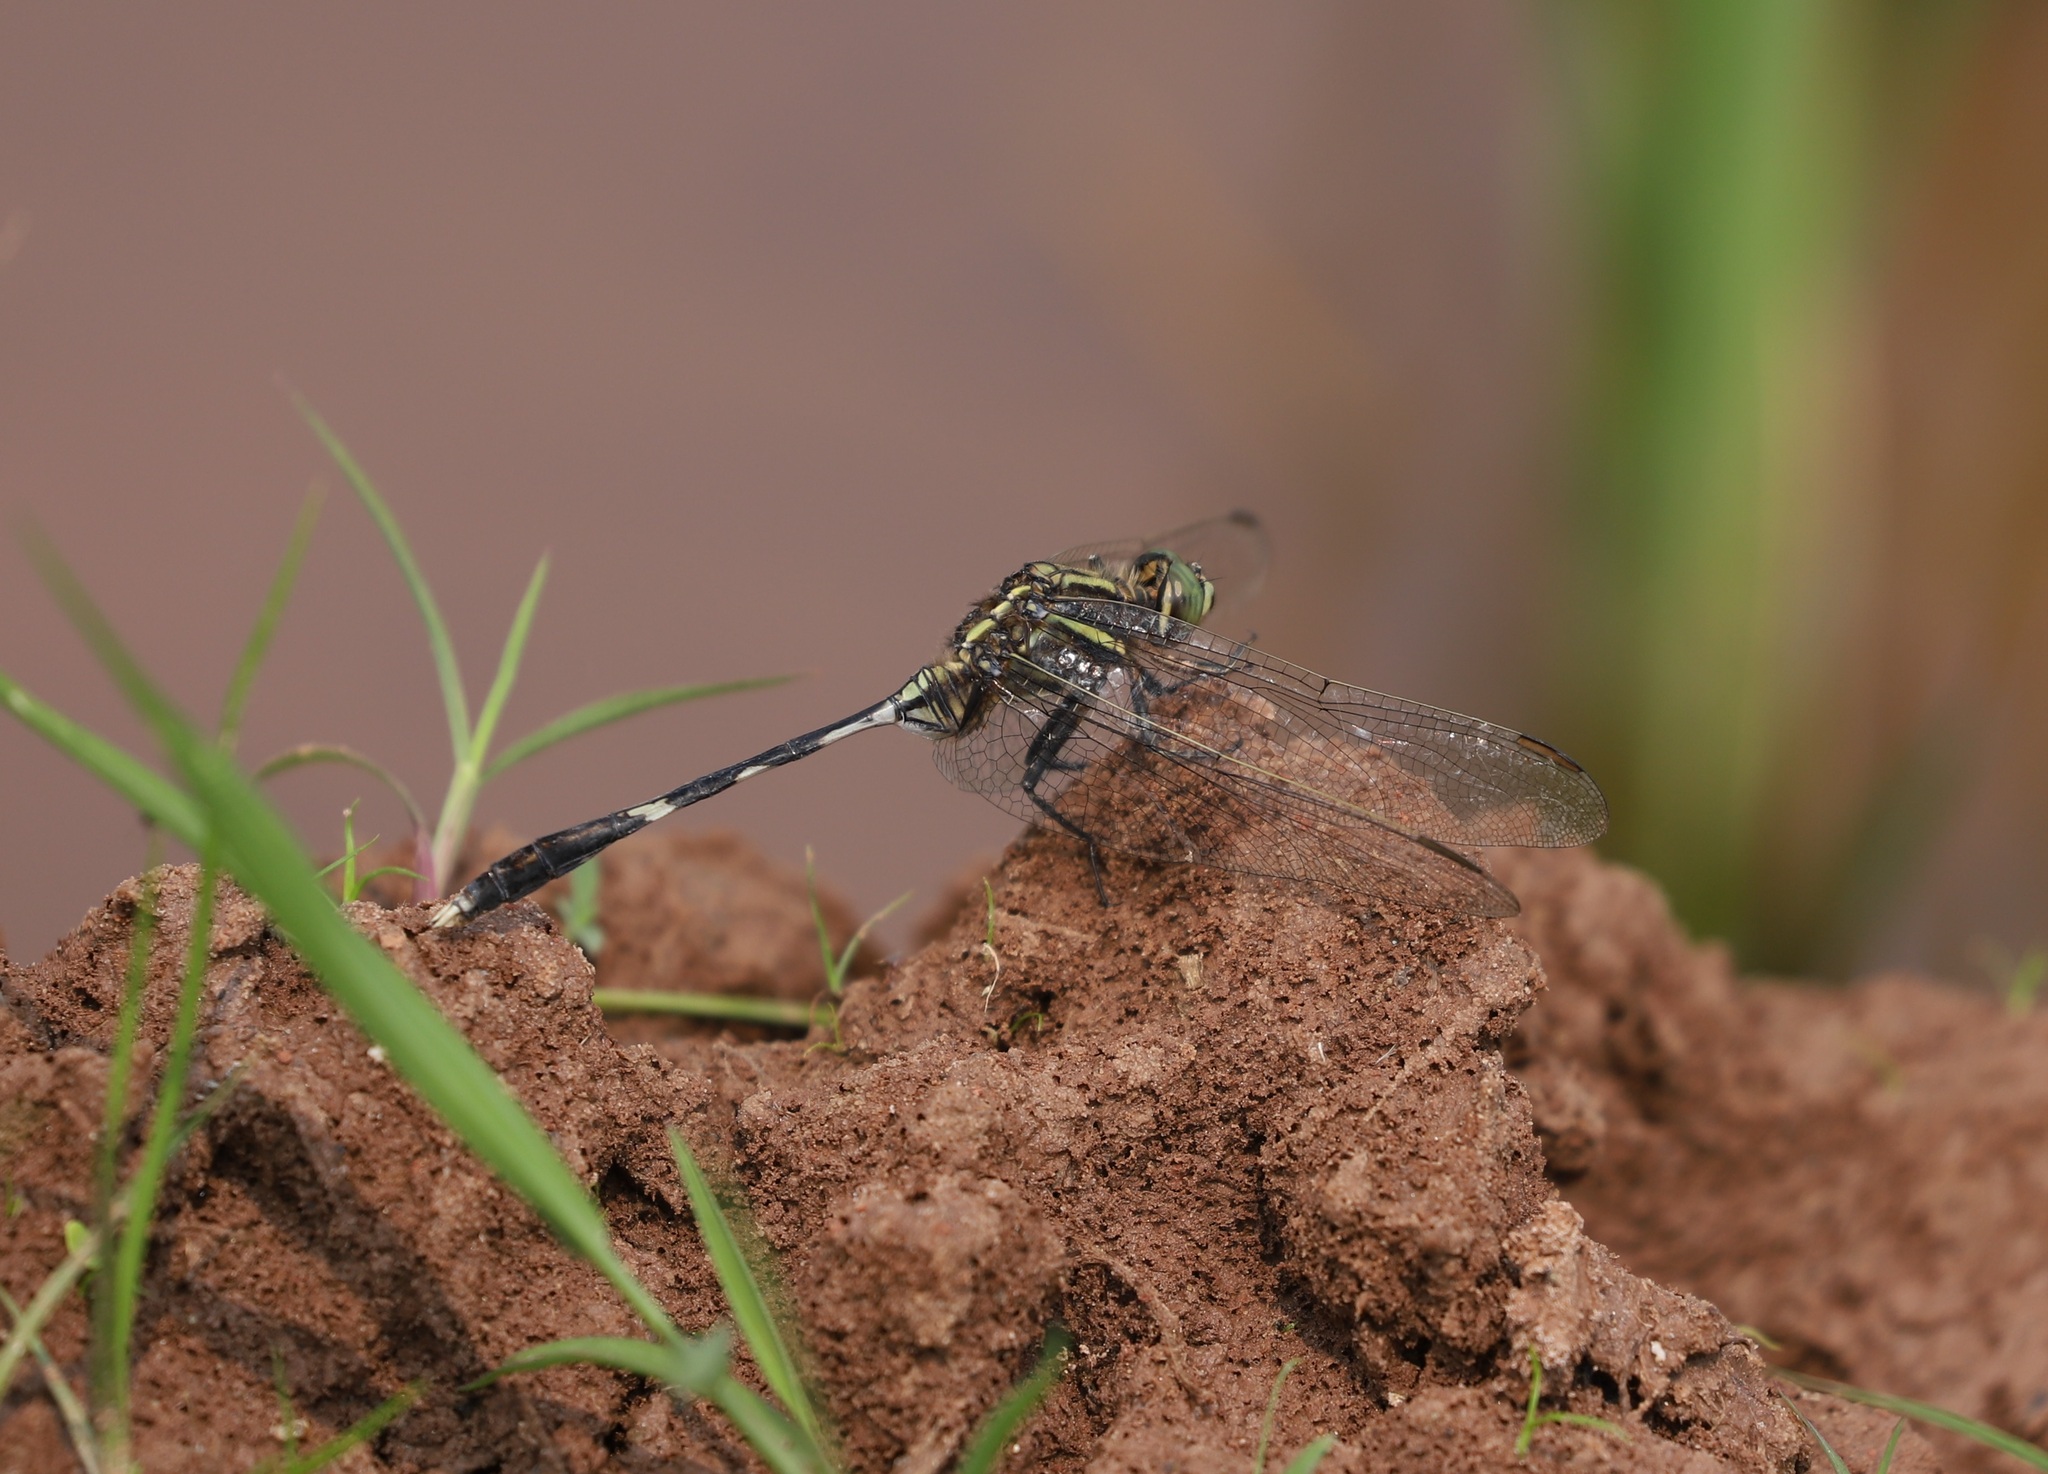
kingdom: Animalia
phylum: Arthropoda
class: Insecta
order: Odonata
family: Libellulidae
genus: Orthetrum
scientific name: Orthetrum sabina
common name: Slender skimmer
